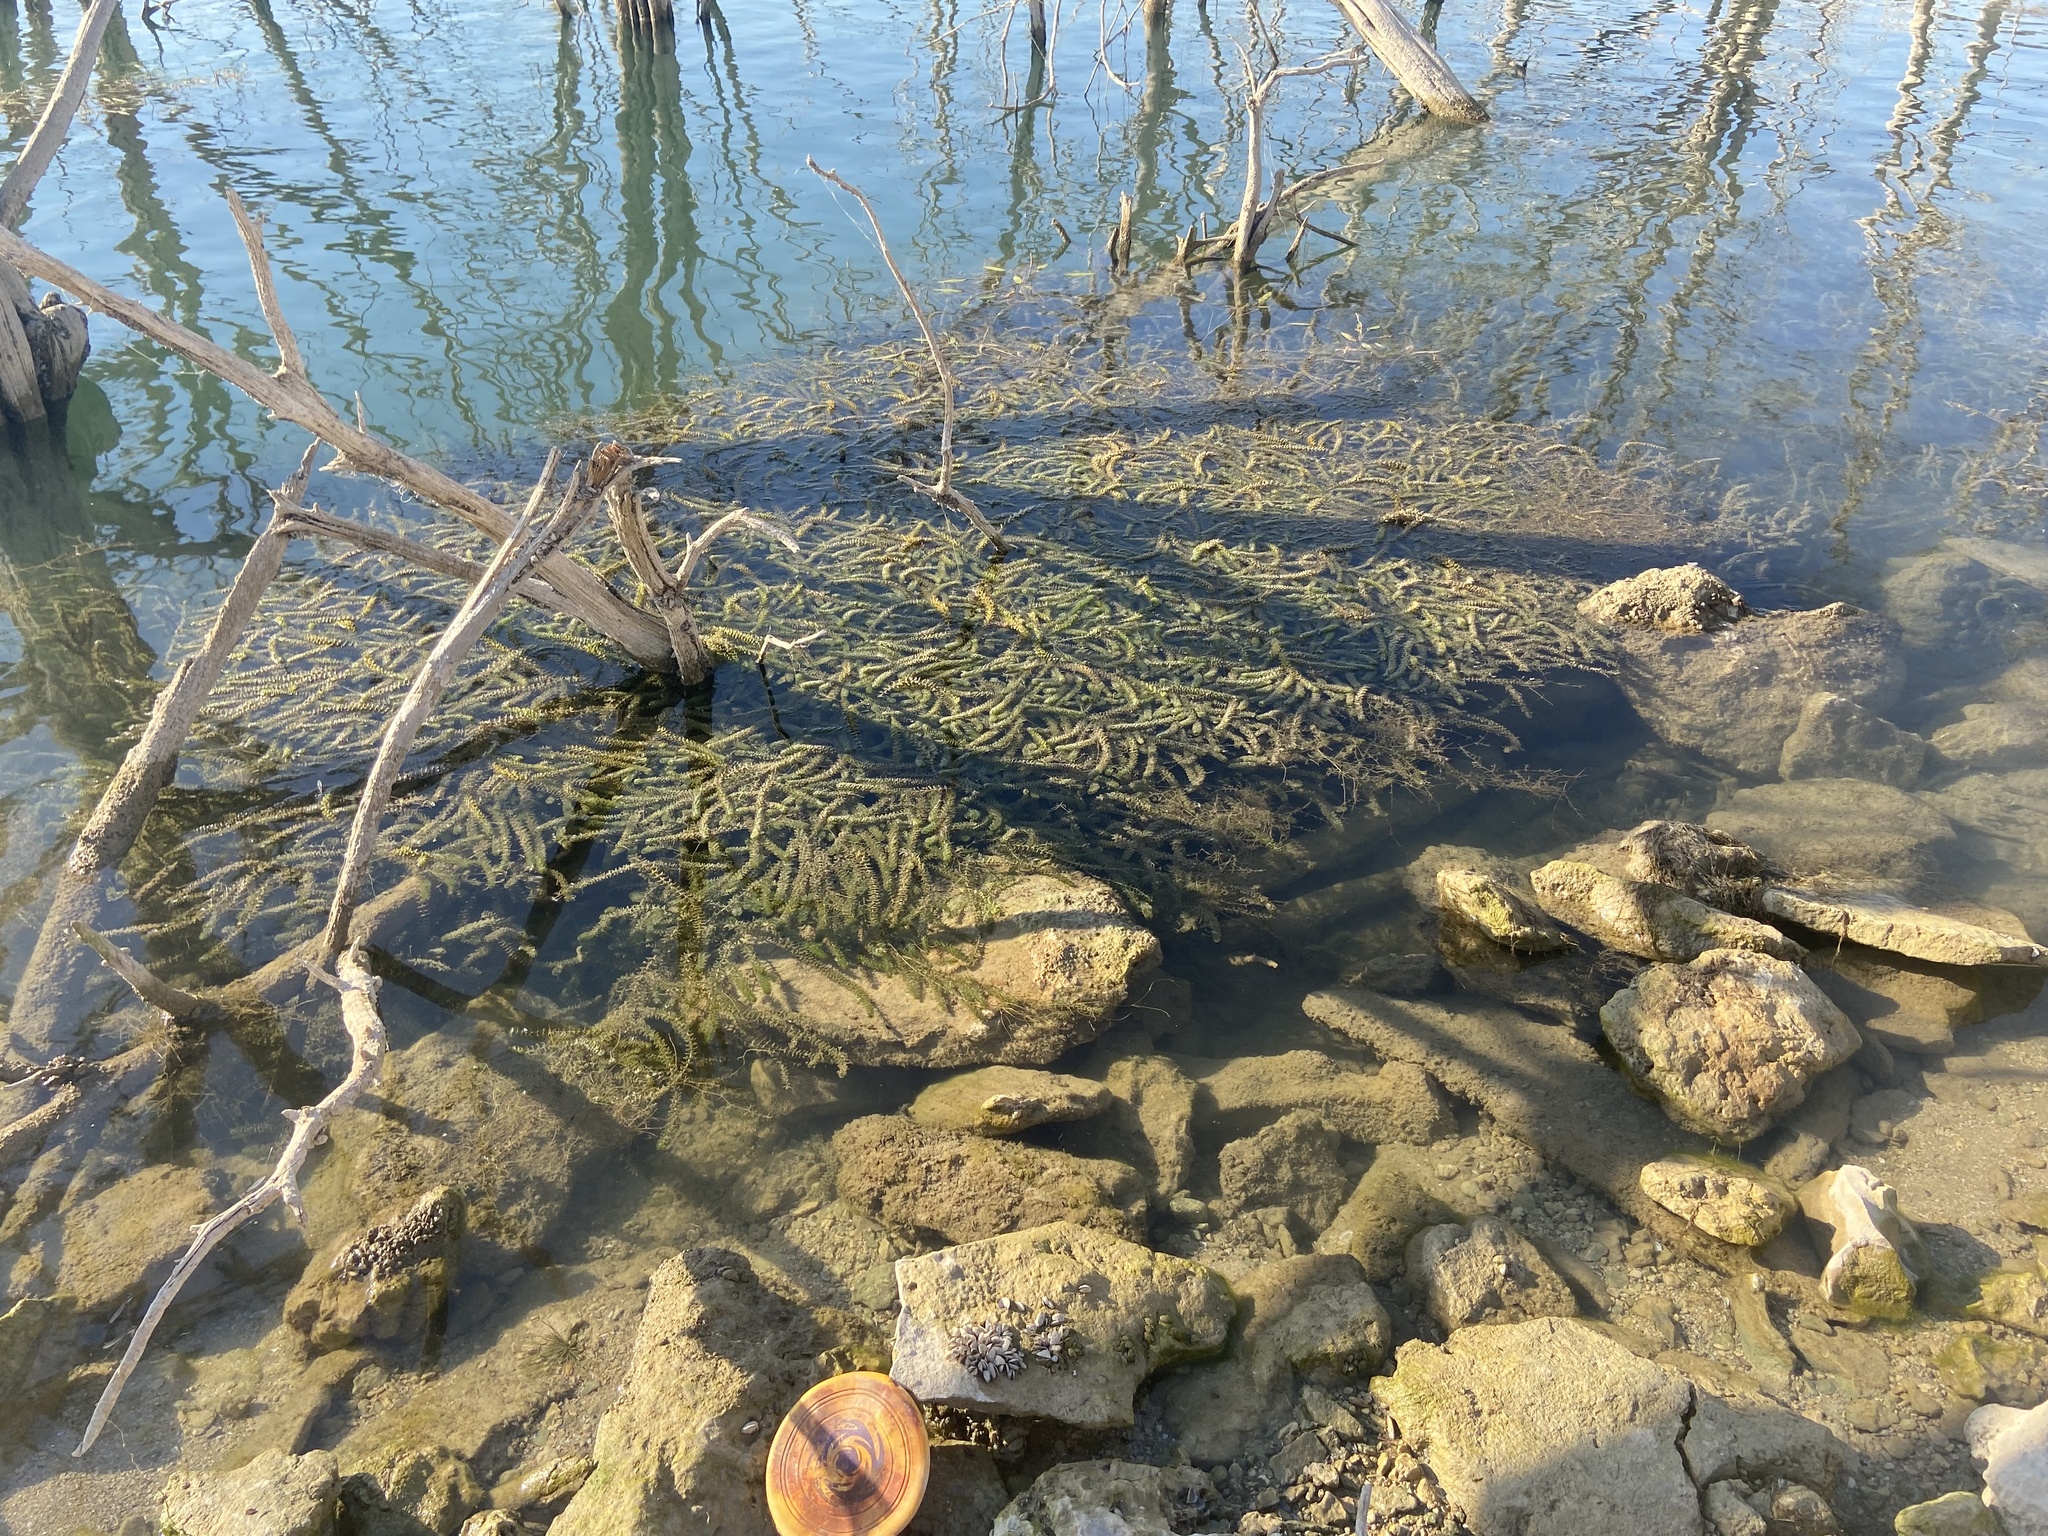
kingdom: Plantae
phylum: Tracheophyta
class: Liliopsida
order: Alismatales
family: Hydrocharitaceae
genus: Hydrilla
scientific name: Hydrilla verticillata
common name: Florida-elodea
